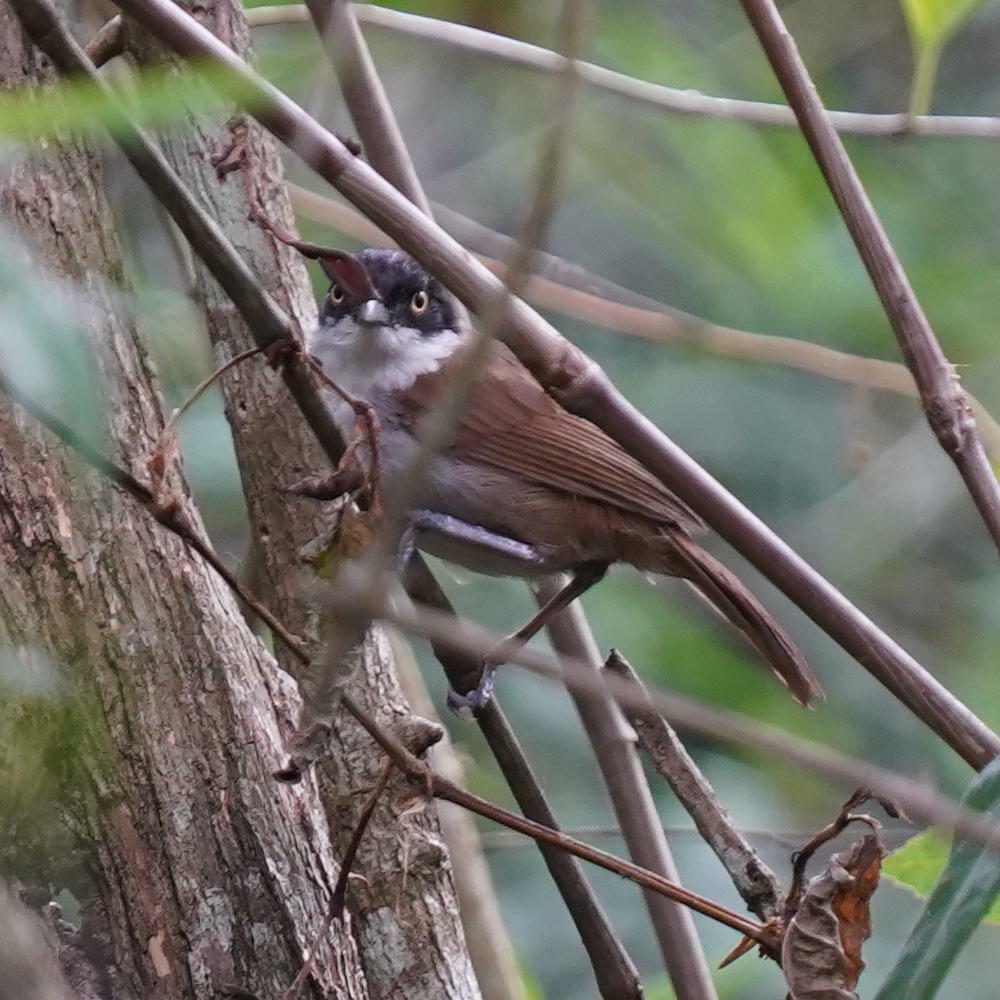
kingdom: Animalia
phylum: Chordata
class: Aves
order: Passeriformes
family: Timaliidae
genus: Rhopocichla
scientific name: Rhopocichla atriceps
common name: Dark-fronted babbler
